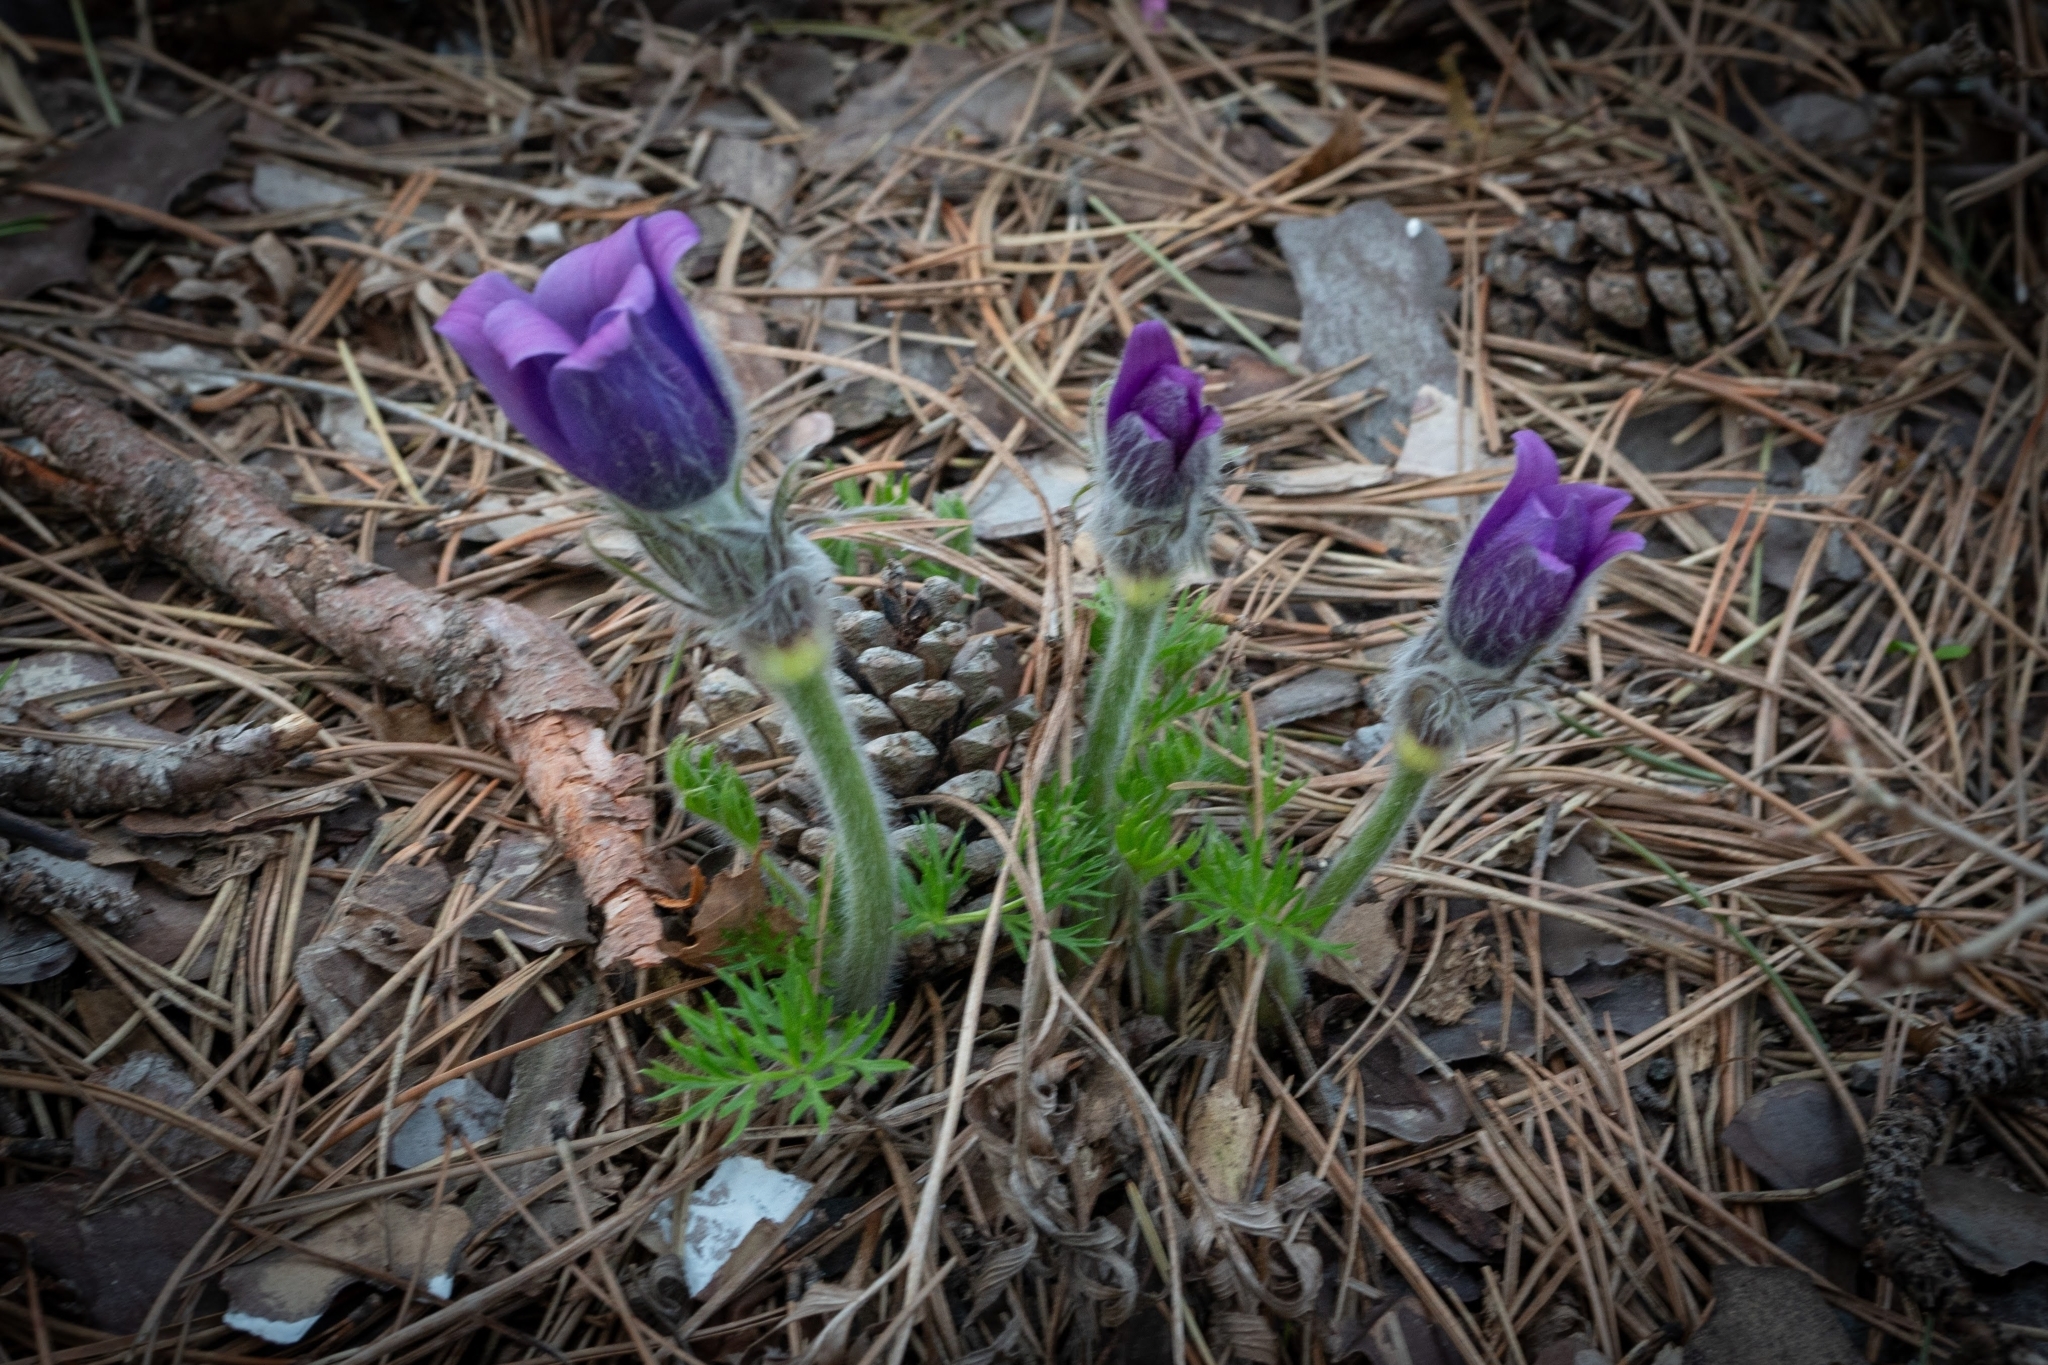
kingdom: Plantae
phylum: Tracheophyta
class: Magnoliopsida
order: Ranunculales
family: Ranunculaceae
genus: Pulsatilla
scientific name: Pulsatilla grandis
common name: Greater pasque flower
